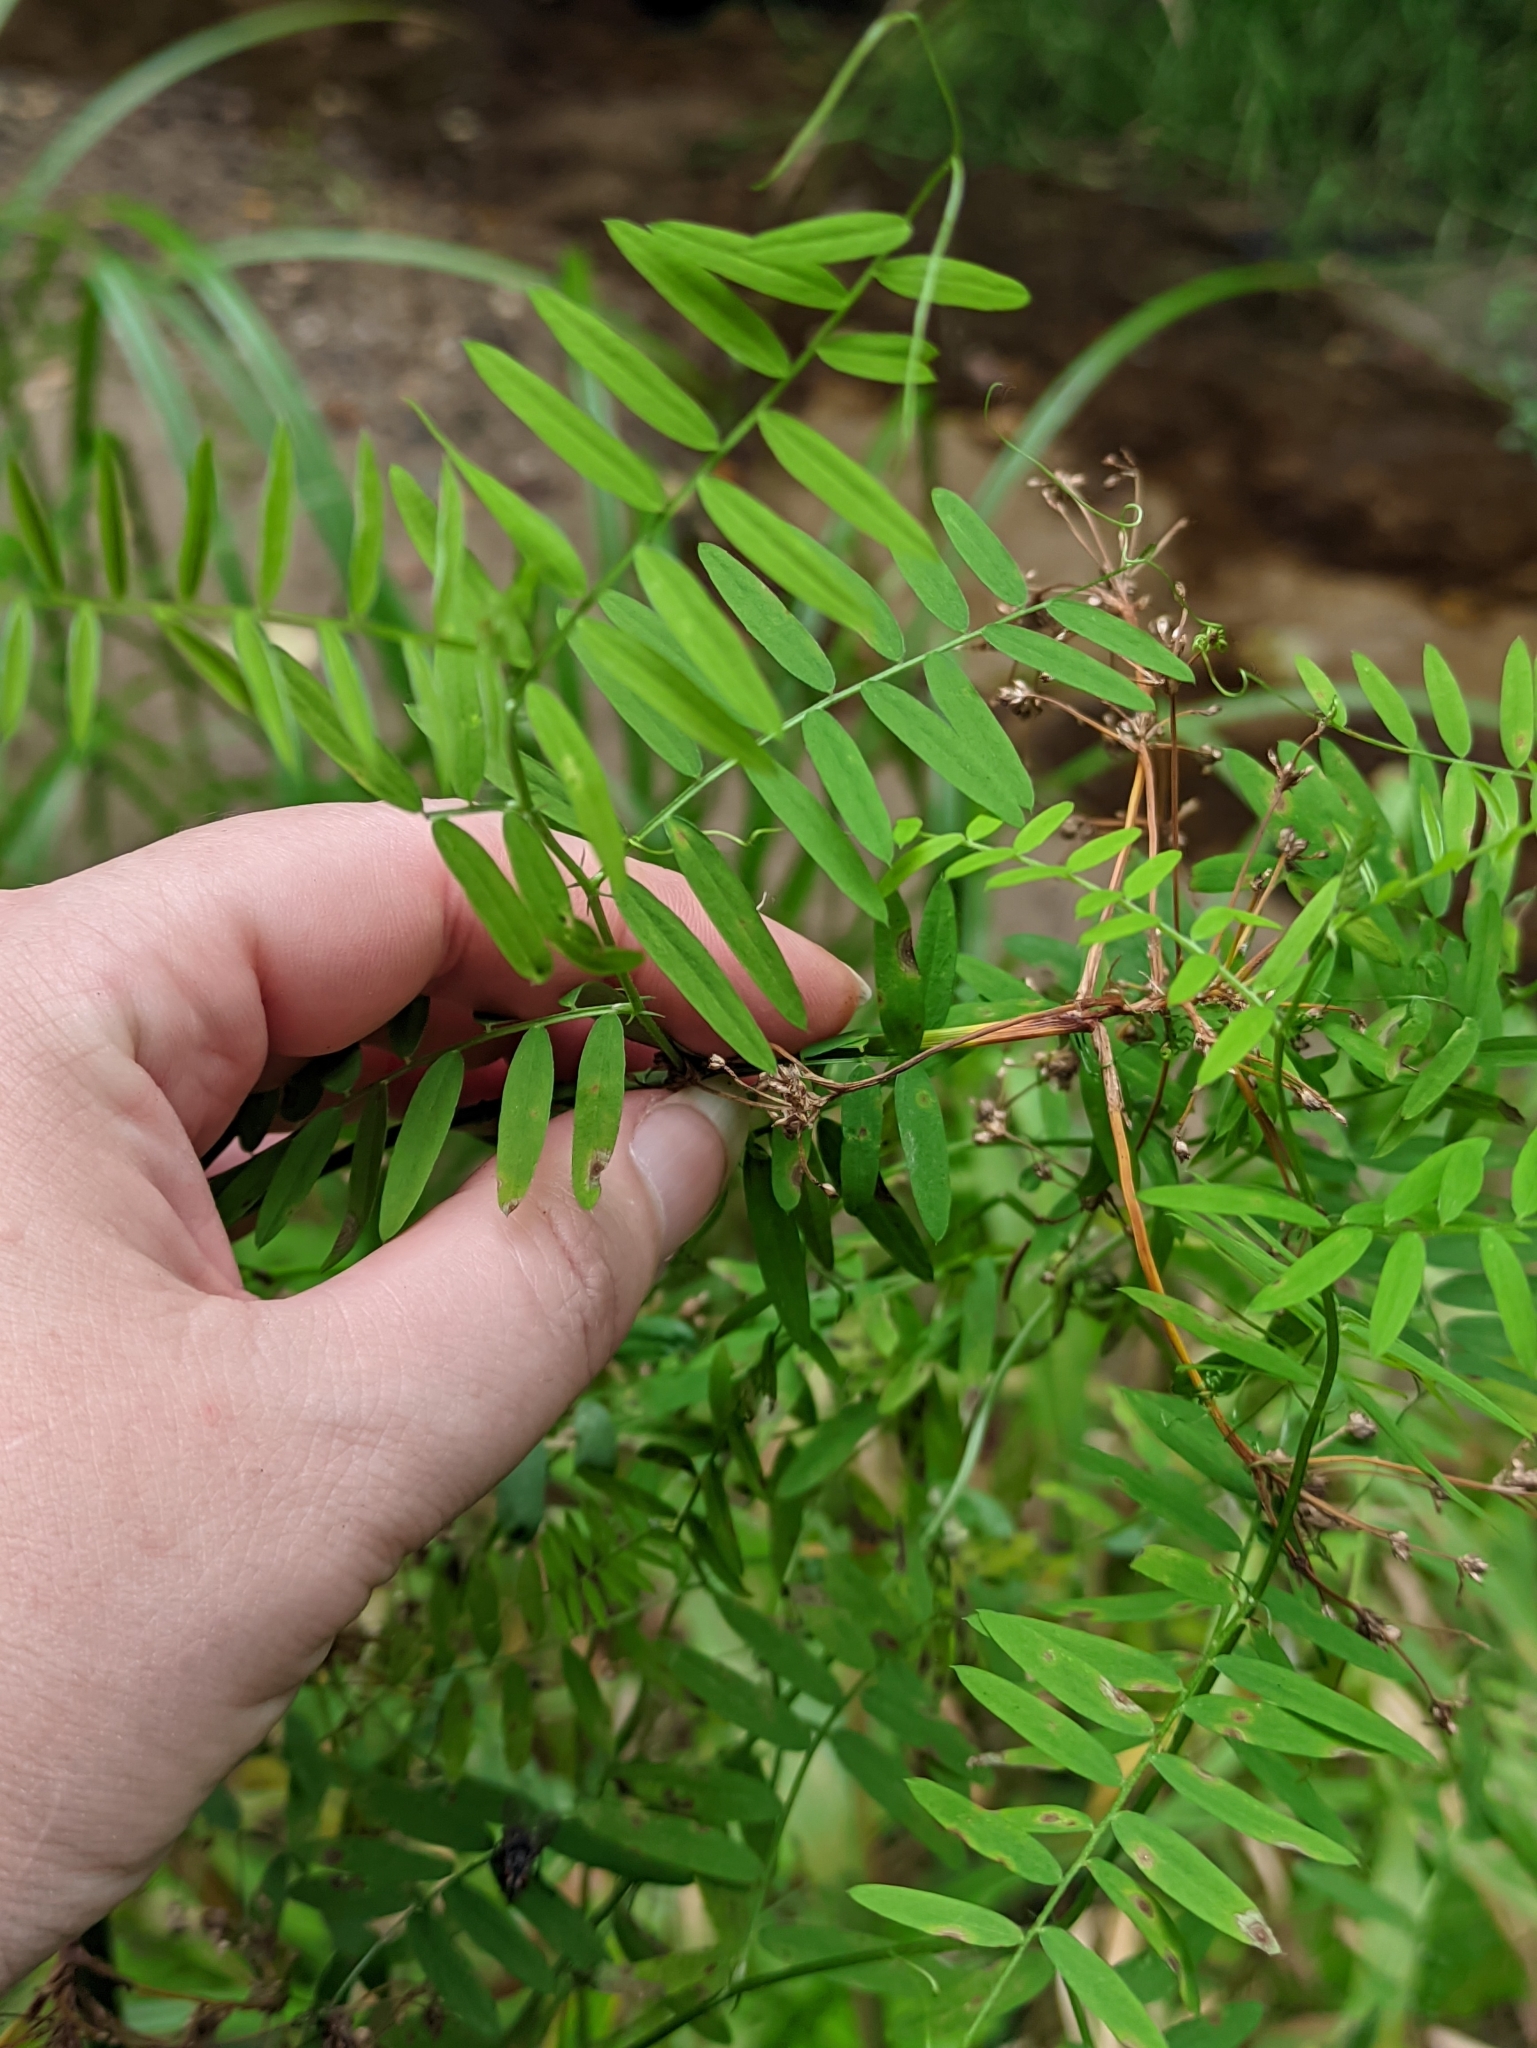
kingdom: Plantae
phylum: Tracheophyta
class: Magnoliopsida
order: Fabales
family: Fabaceae
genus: Vicia
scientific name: Vicia cracca
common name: Bird vetch
